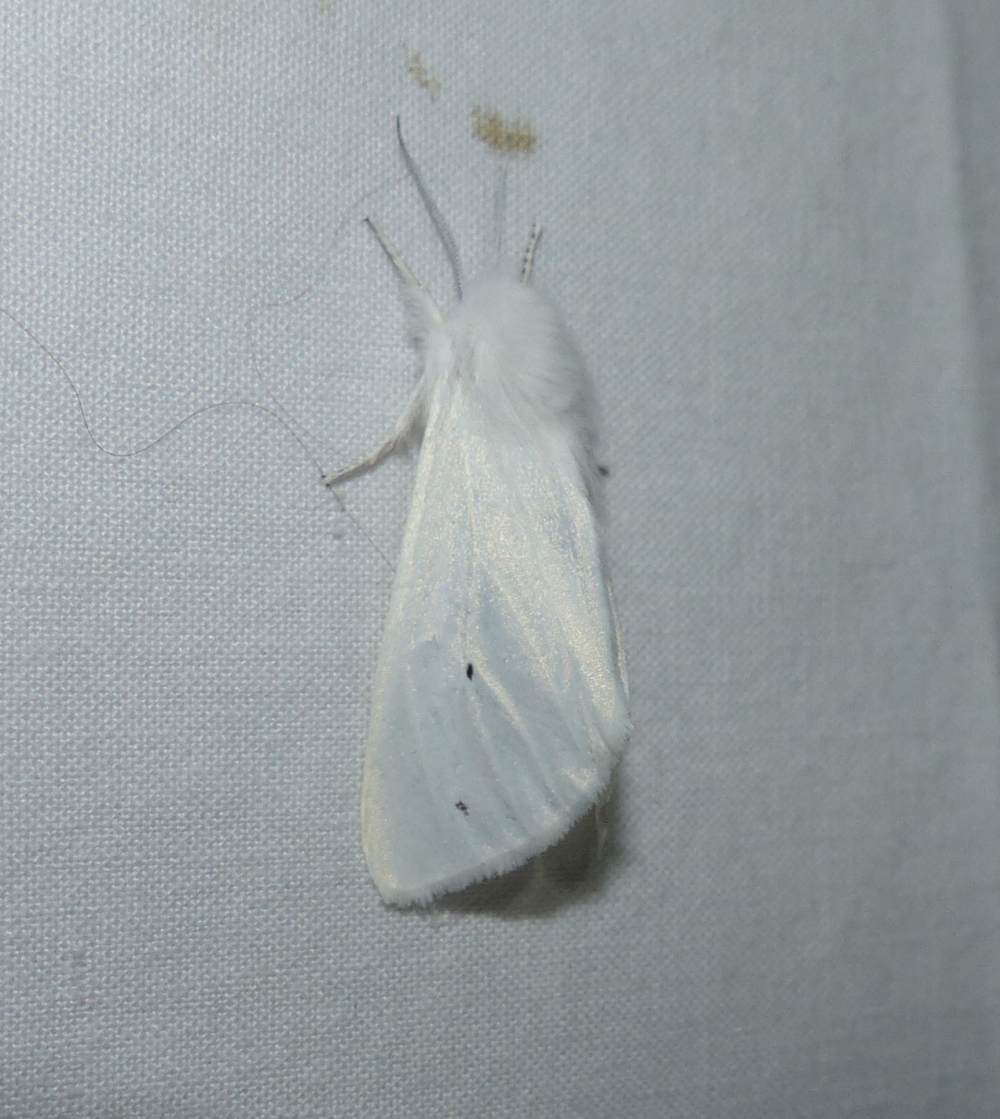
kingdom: Animalia
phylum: Arthropoda
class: Insecta
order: Lepidoptera
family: Erebidae
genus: Spilosoma
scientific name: Spilosoma virginica
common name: Virginia tiger moth
